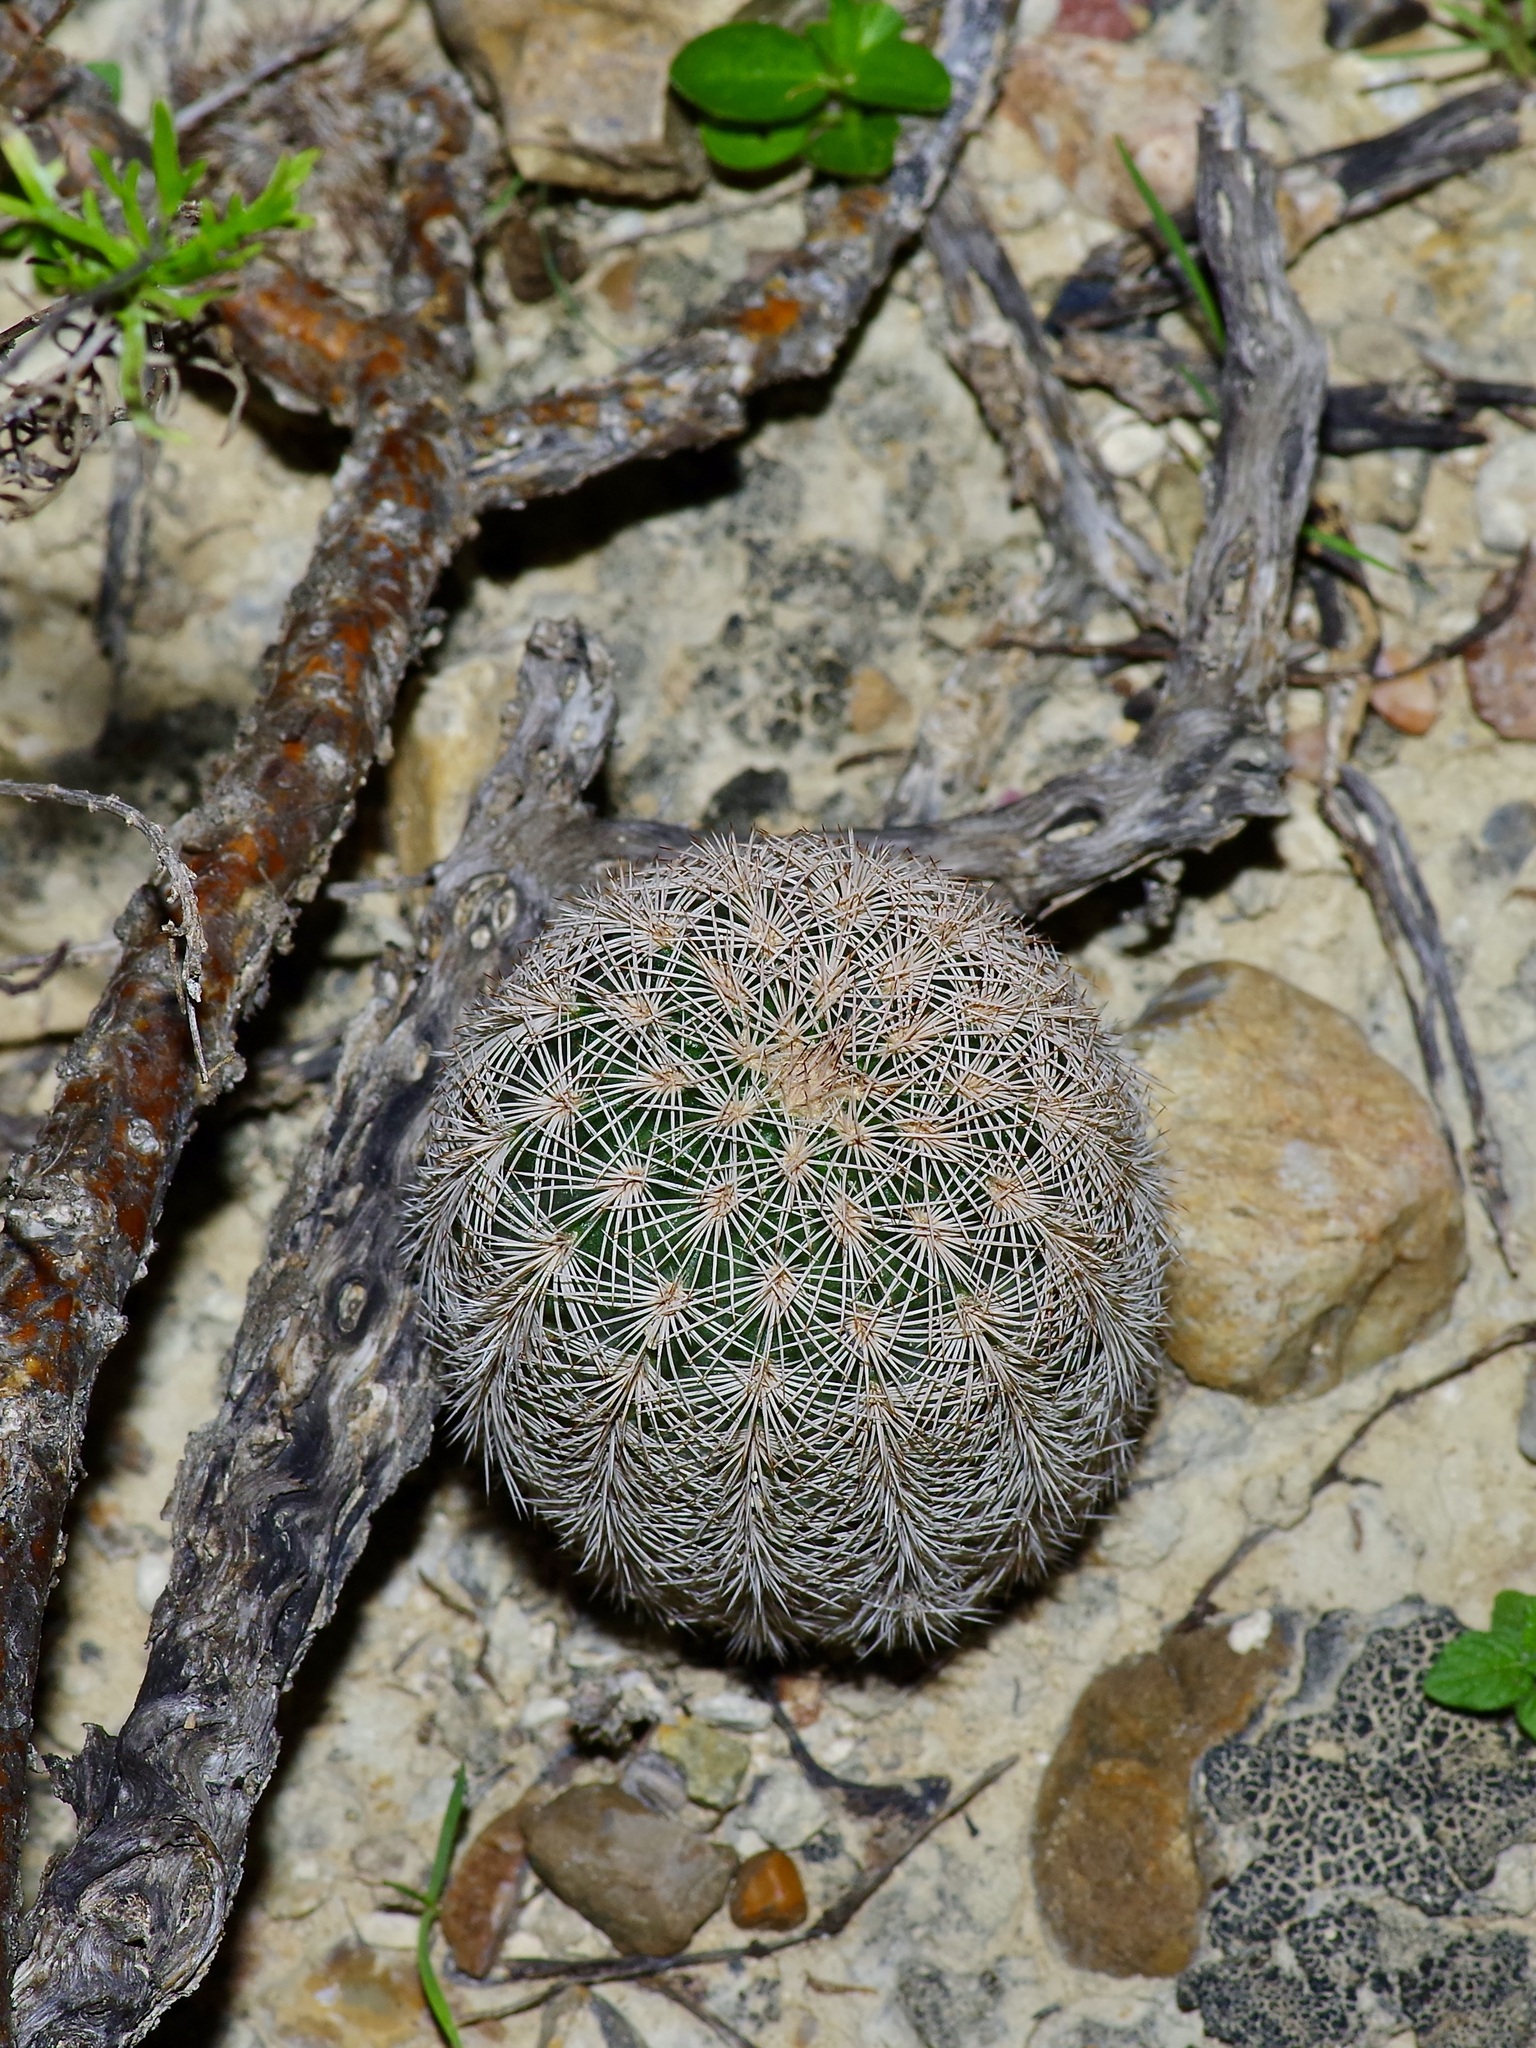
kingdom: Plantae
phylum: Tracheophyta
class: Magnoliopsida
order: Caryophyllales
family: Cactaceae
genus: Echinocereus
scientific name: Echinocereus reichenbachii
